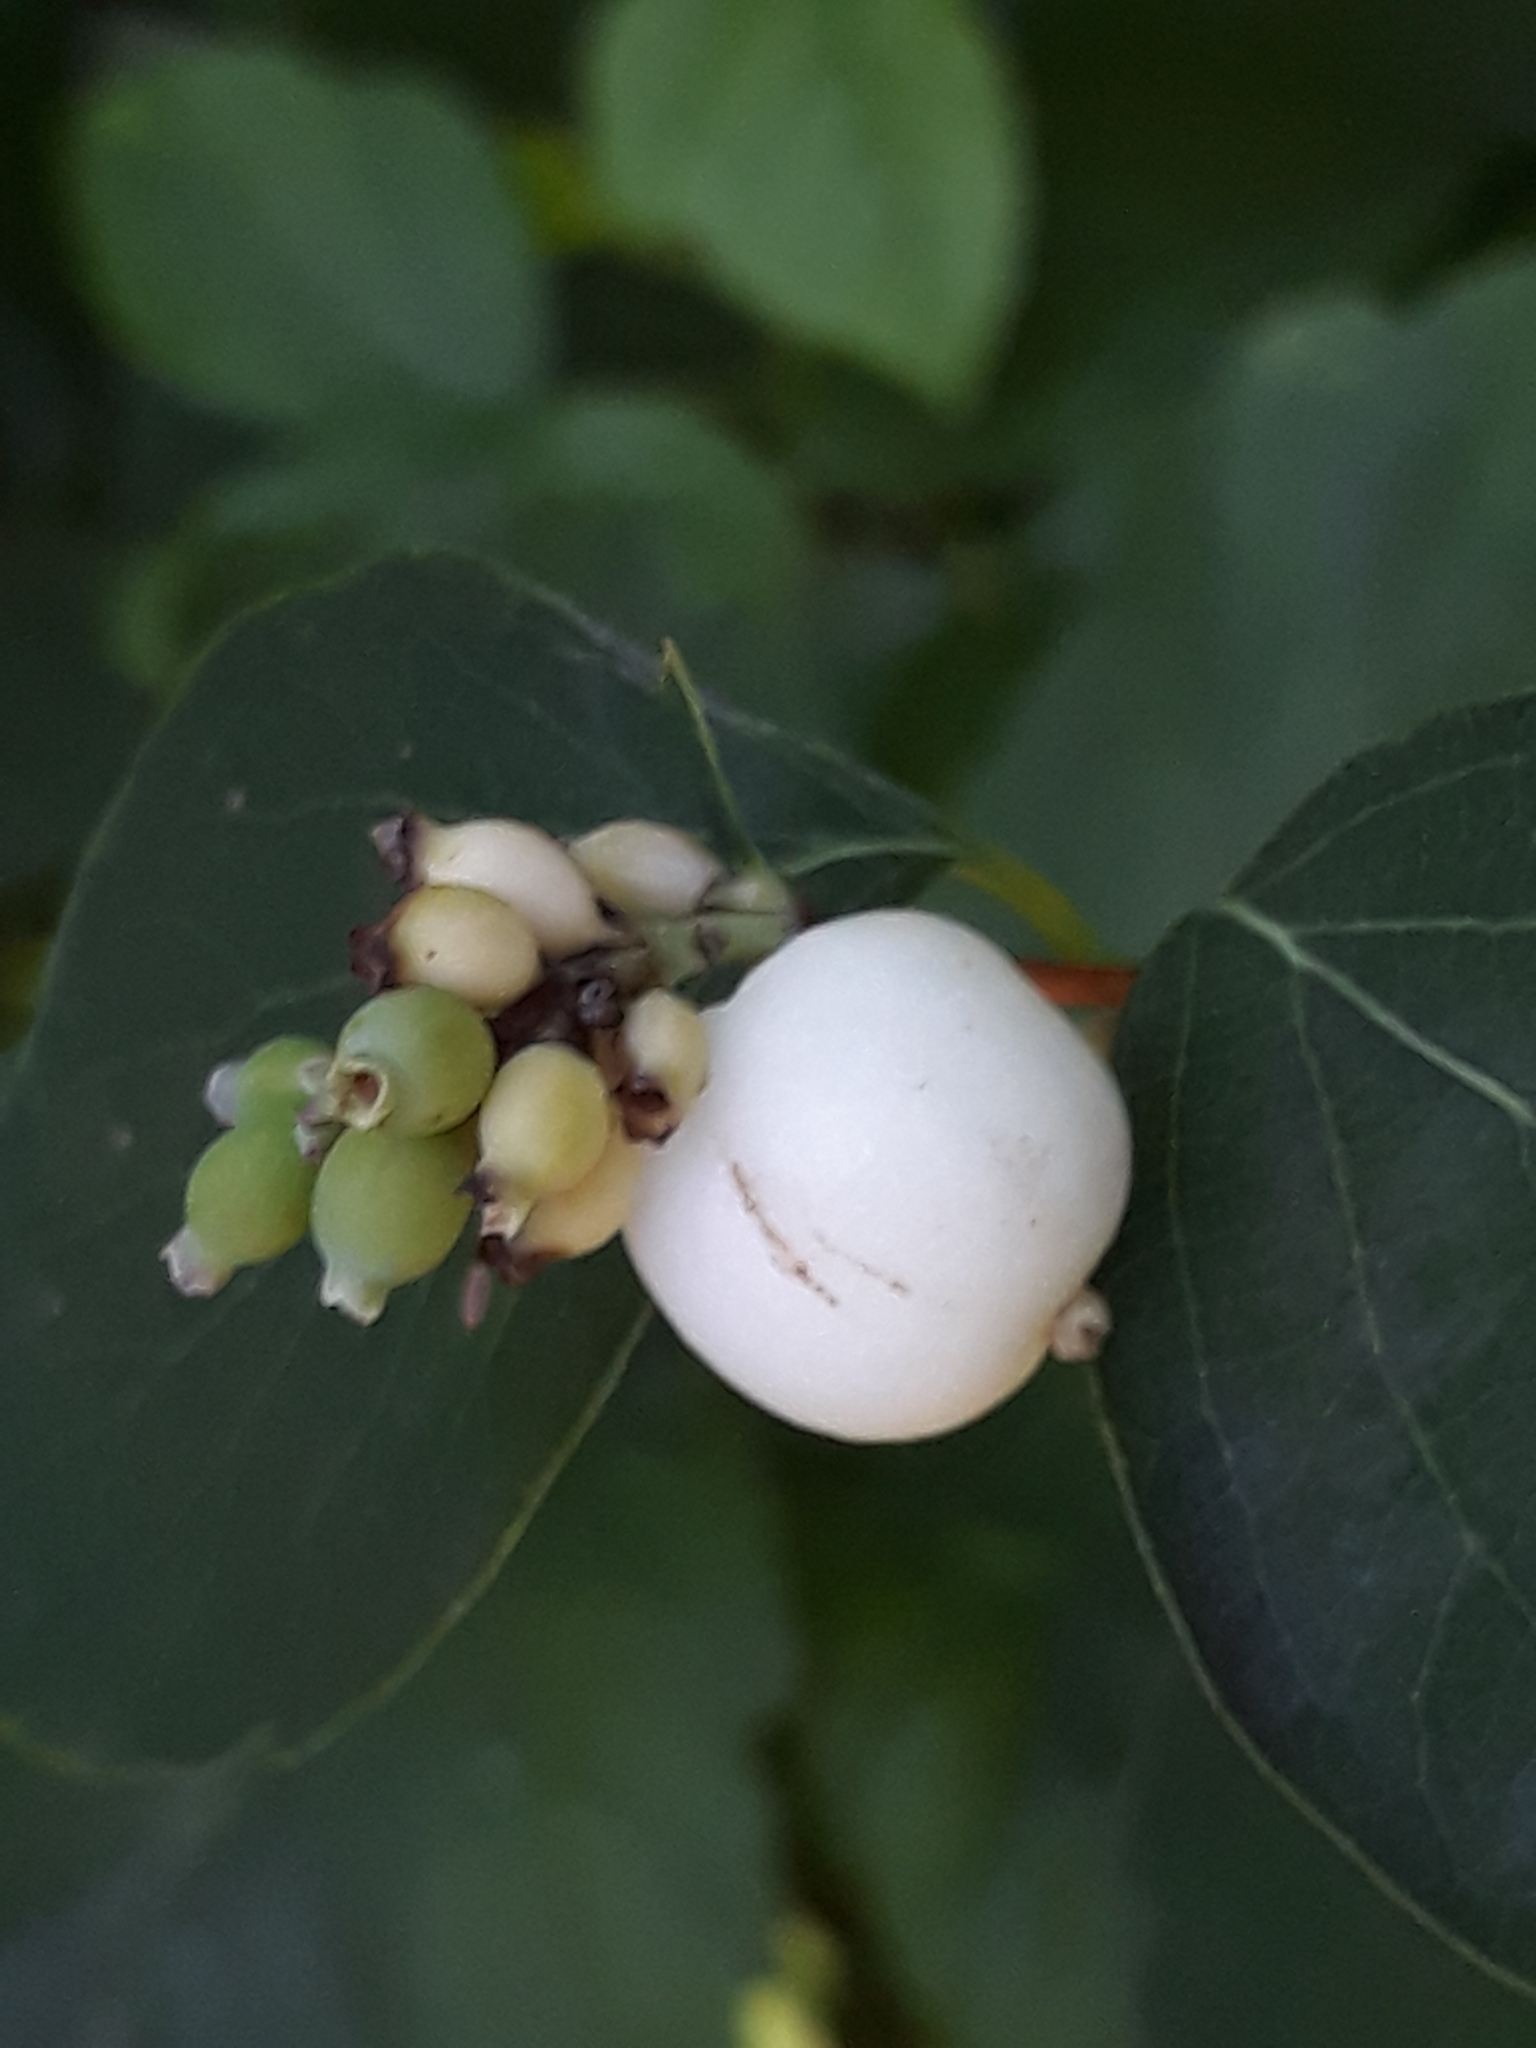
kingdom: Plantae
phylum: Tracheophyta
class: Magnoliopsida
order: Dipsacales
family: Caprifoliaceae
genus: Symphoricarpos
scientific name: Symphoricarpos albus
